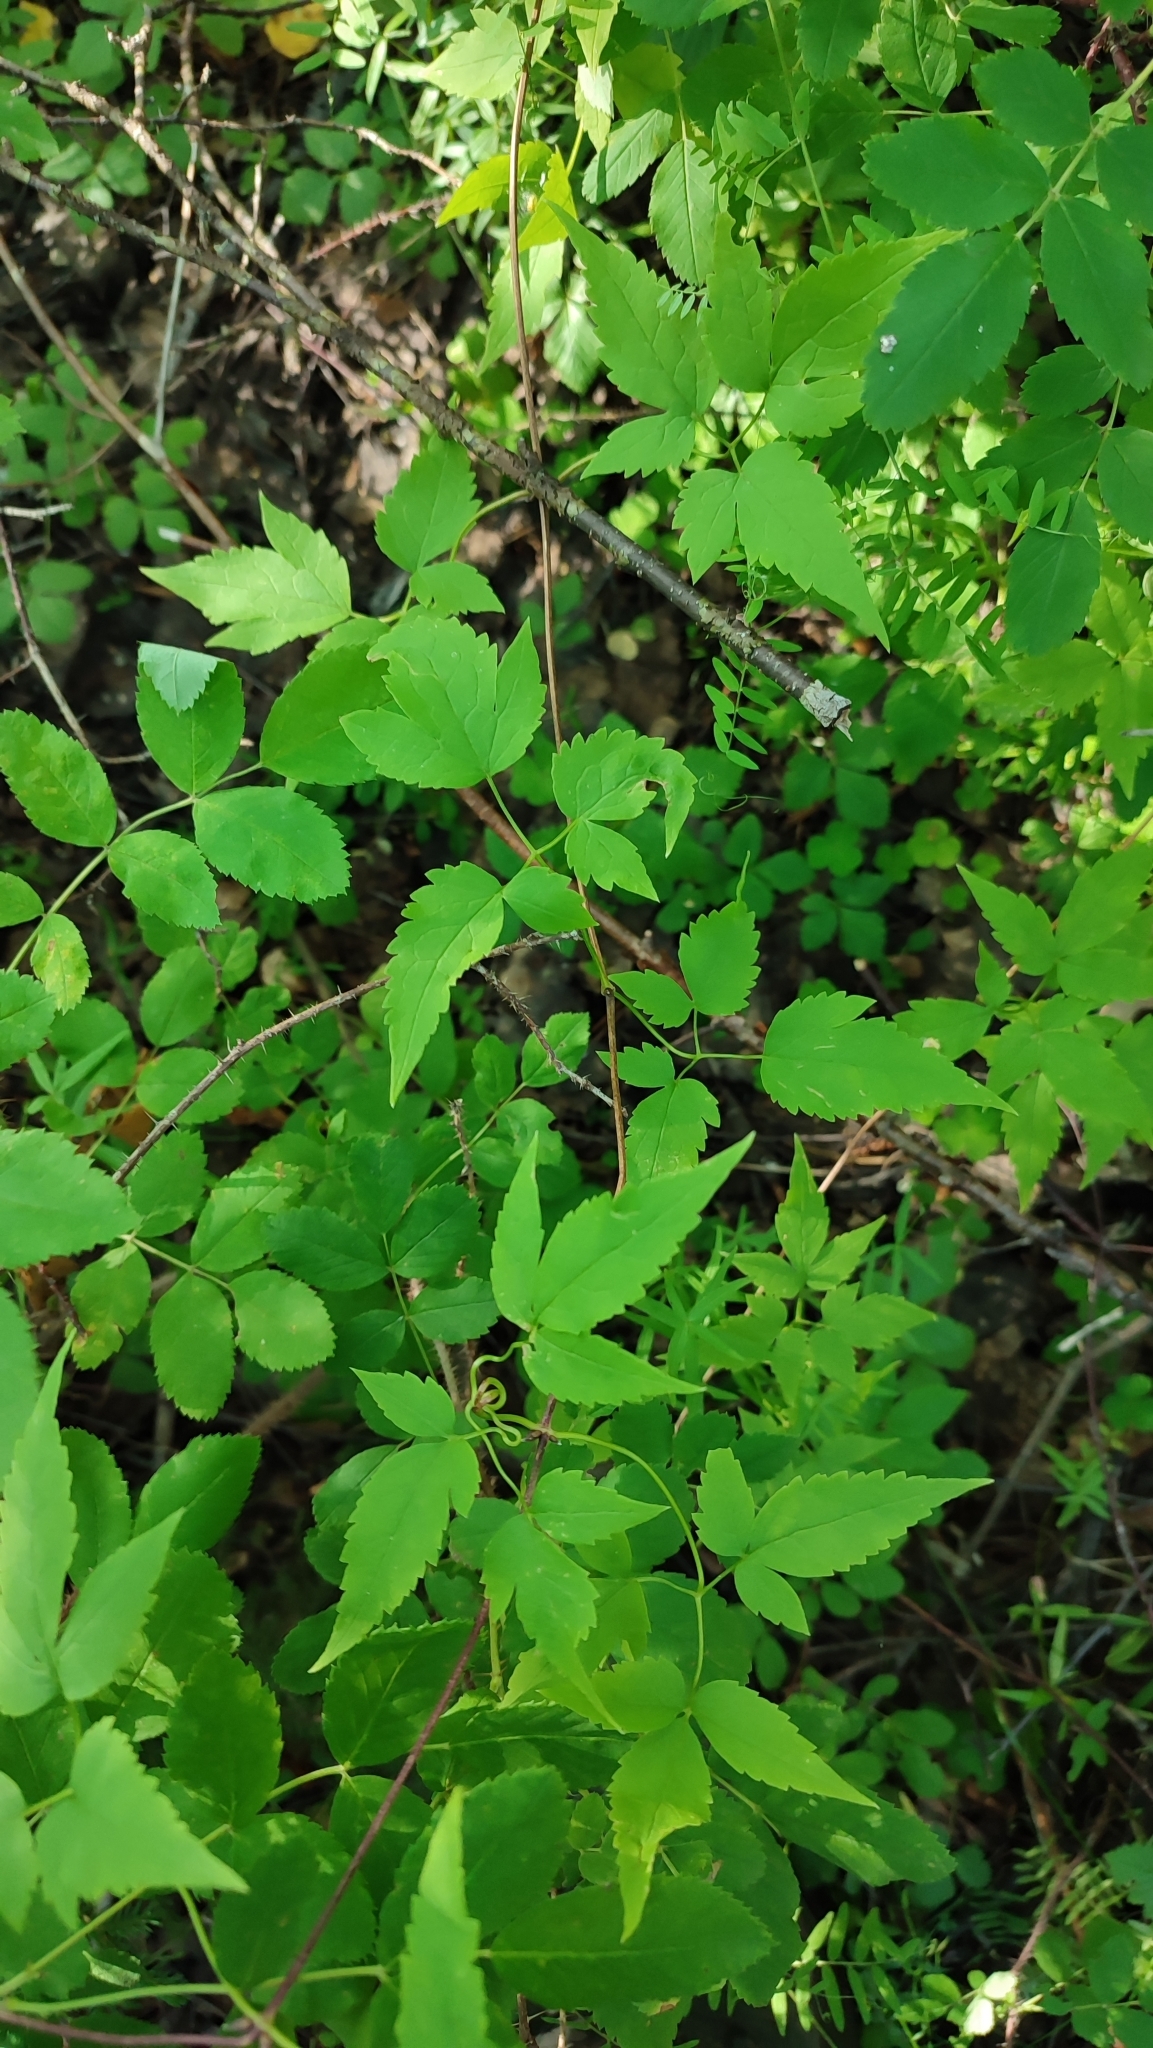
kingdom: Plantae
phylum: Tracheophyta
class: Magnoliopsida
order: Ranunculales
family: Ranunculaceae
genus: Clematis
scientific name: Clematis sibirica
